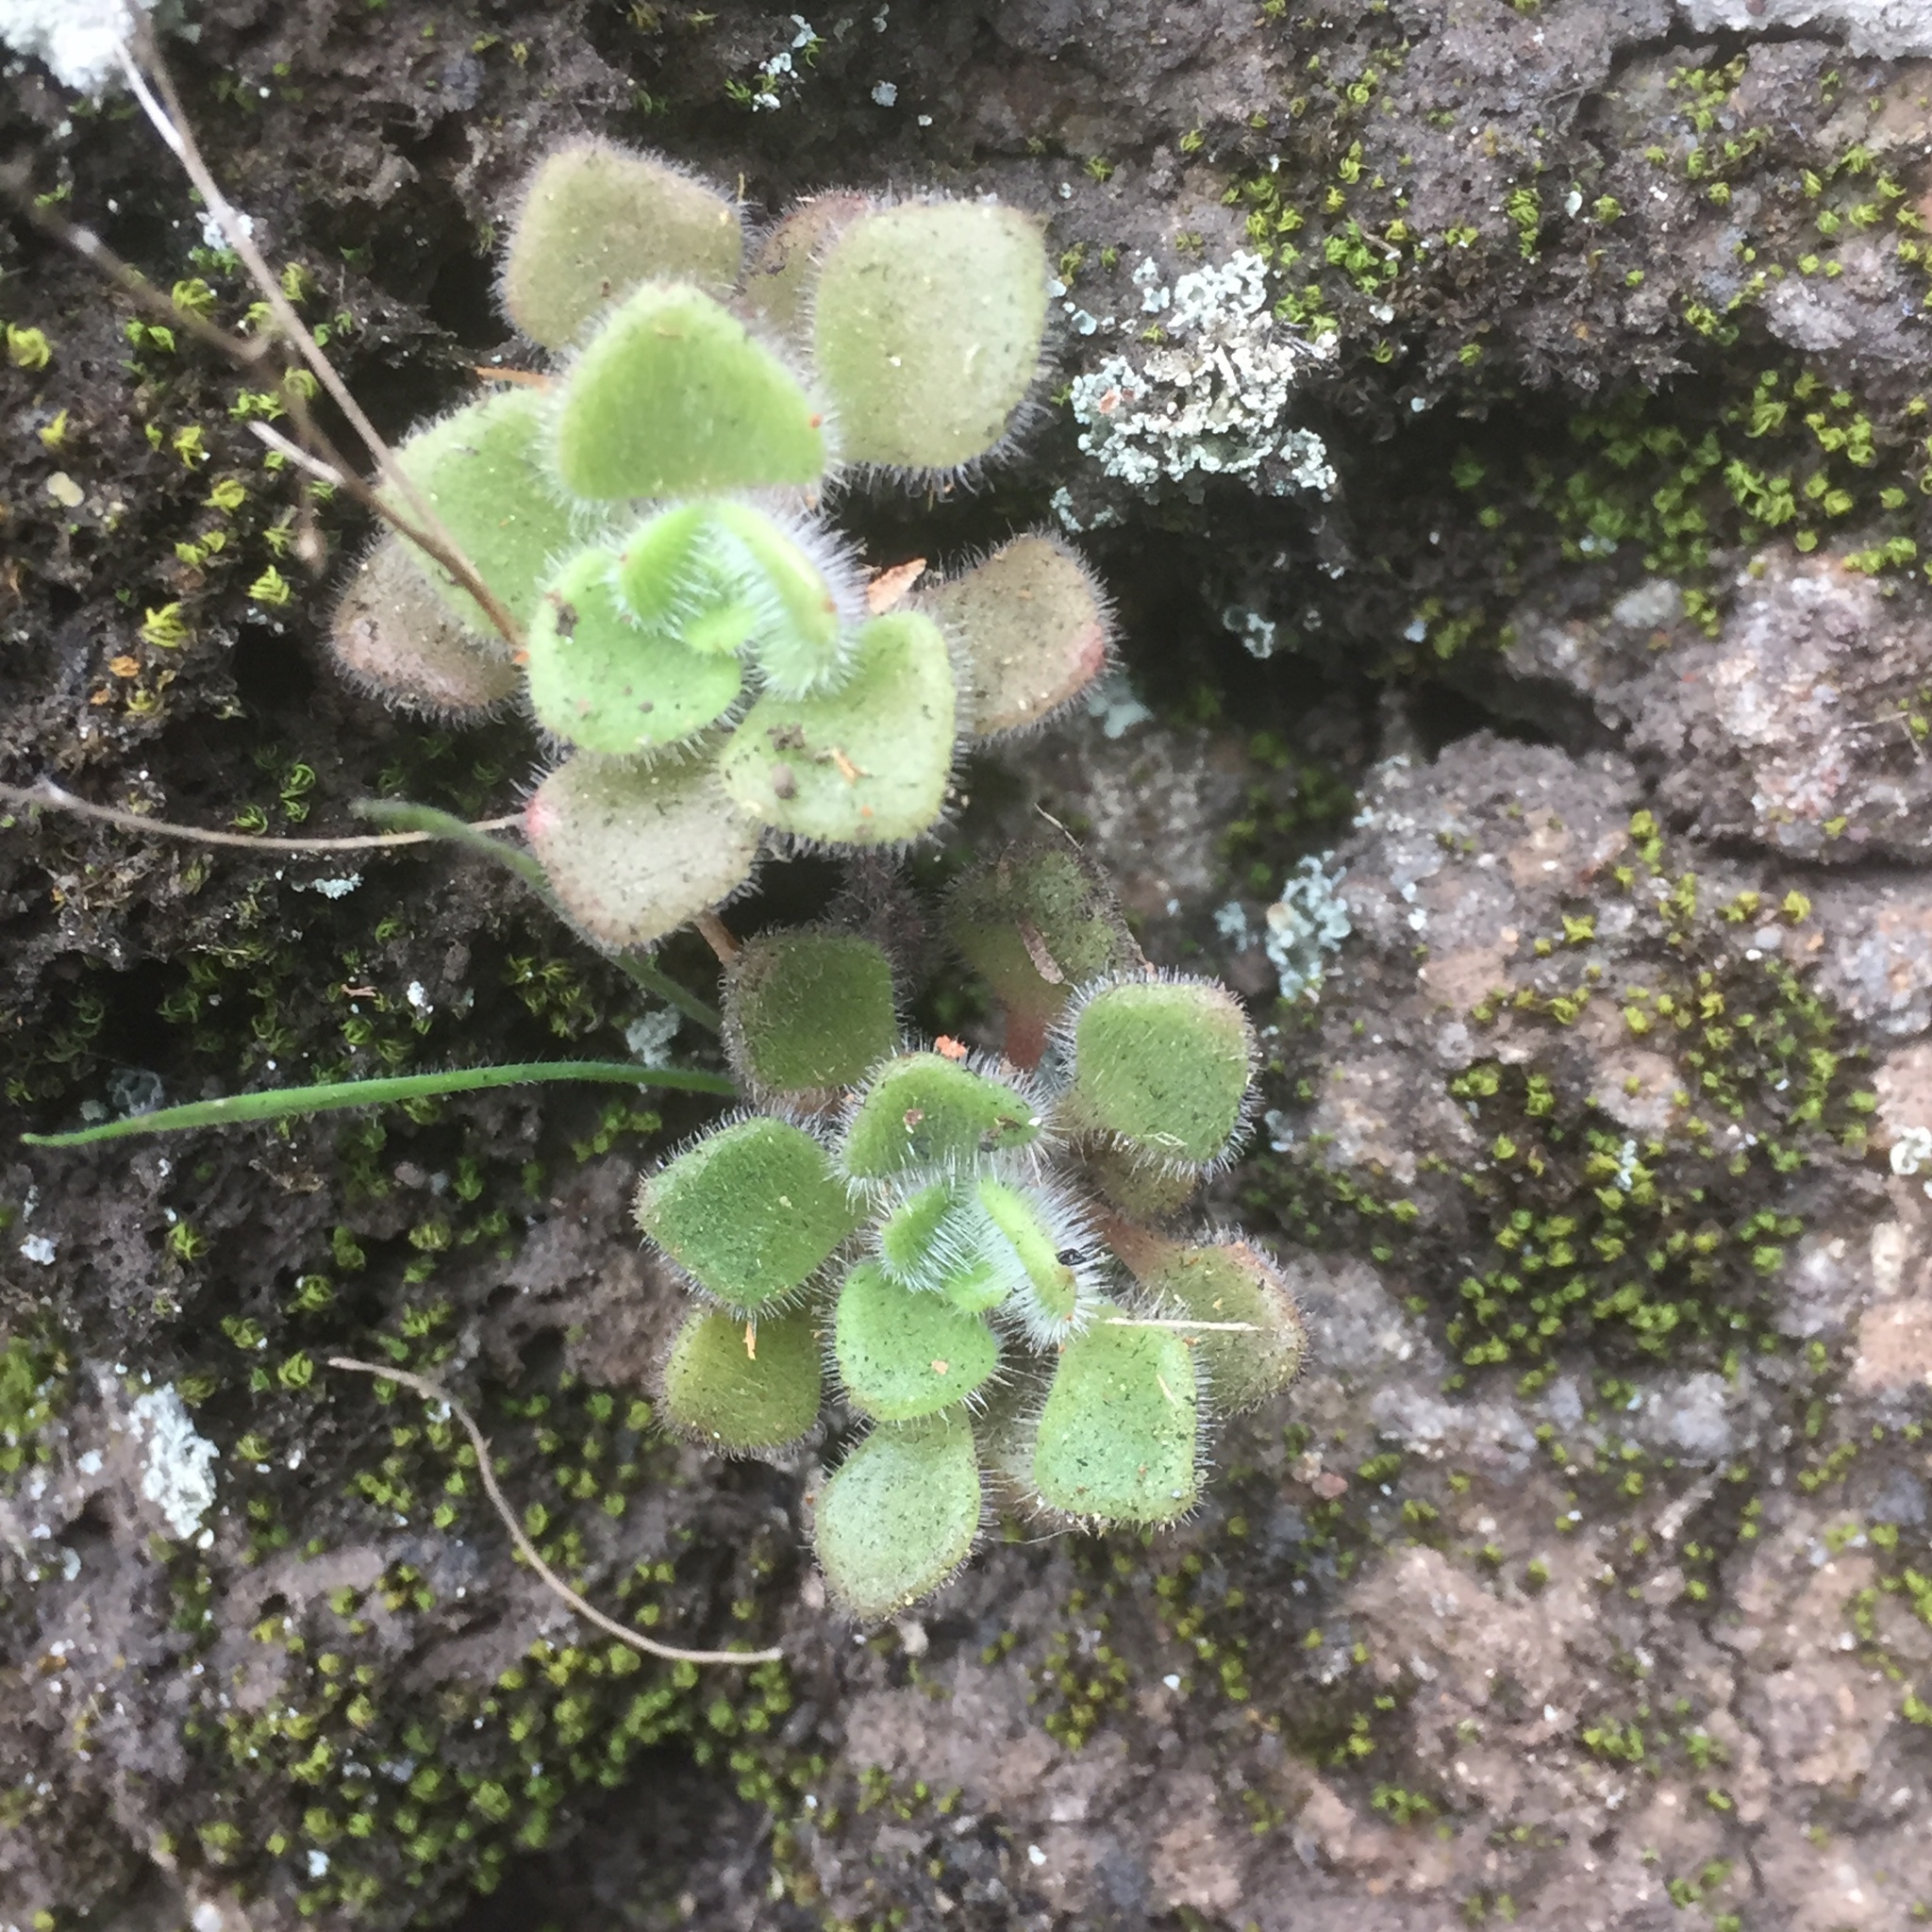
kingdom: Plantae
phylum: Tracheophyta
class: Magnoliopsida
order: Saxifragales
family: Crassulaceae
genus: Aichryson
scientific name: Aichryson villosum
